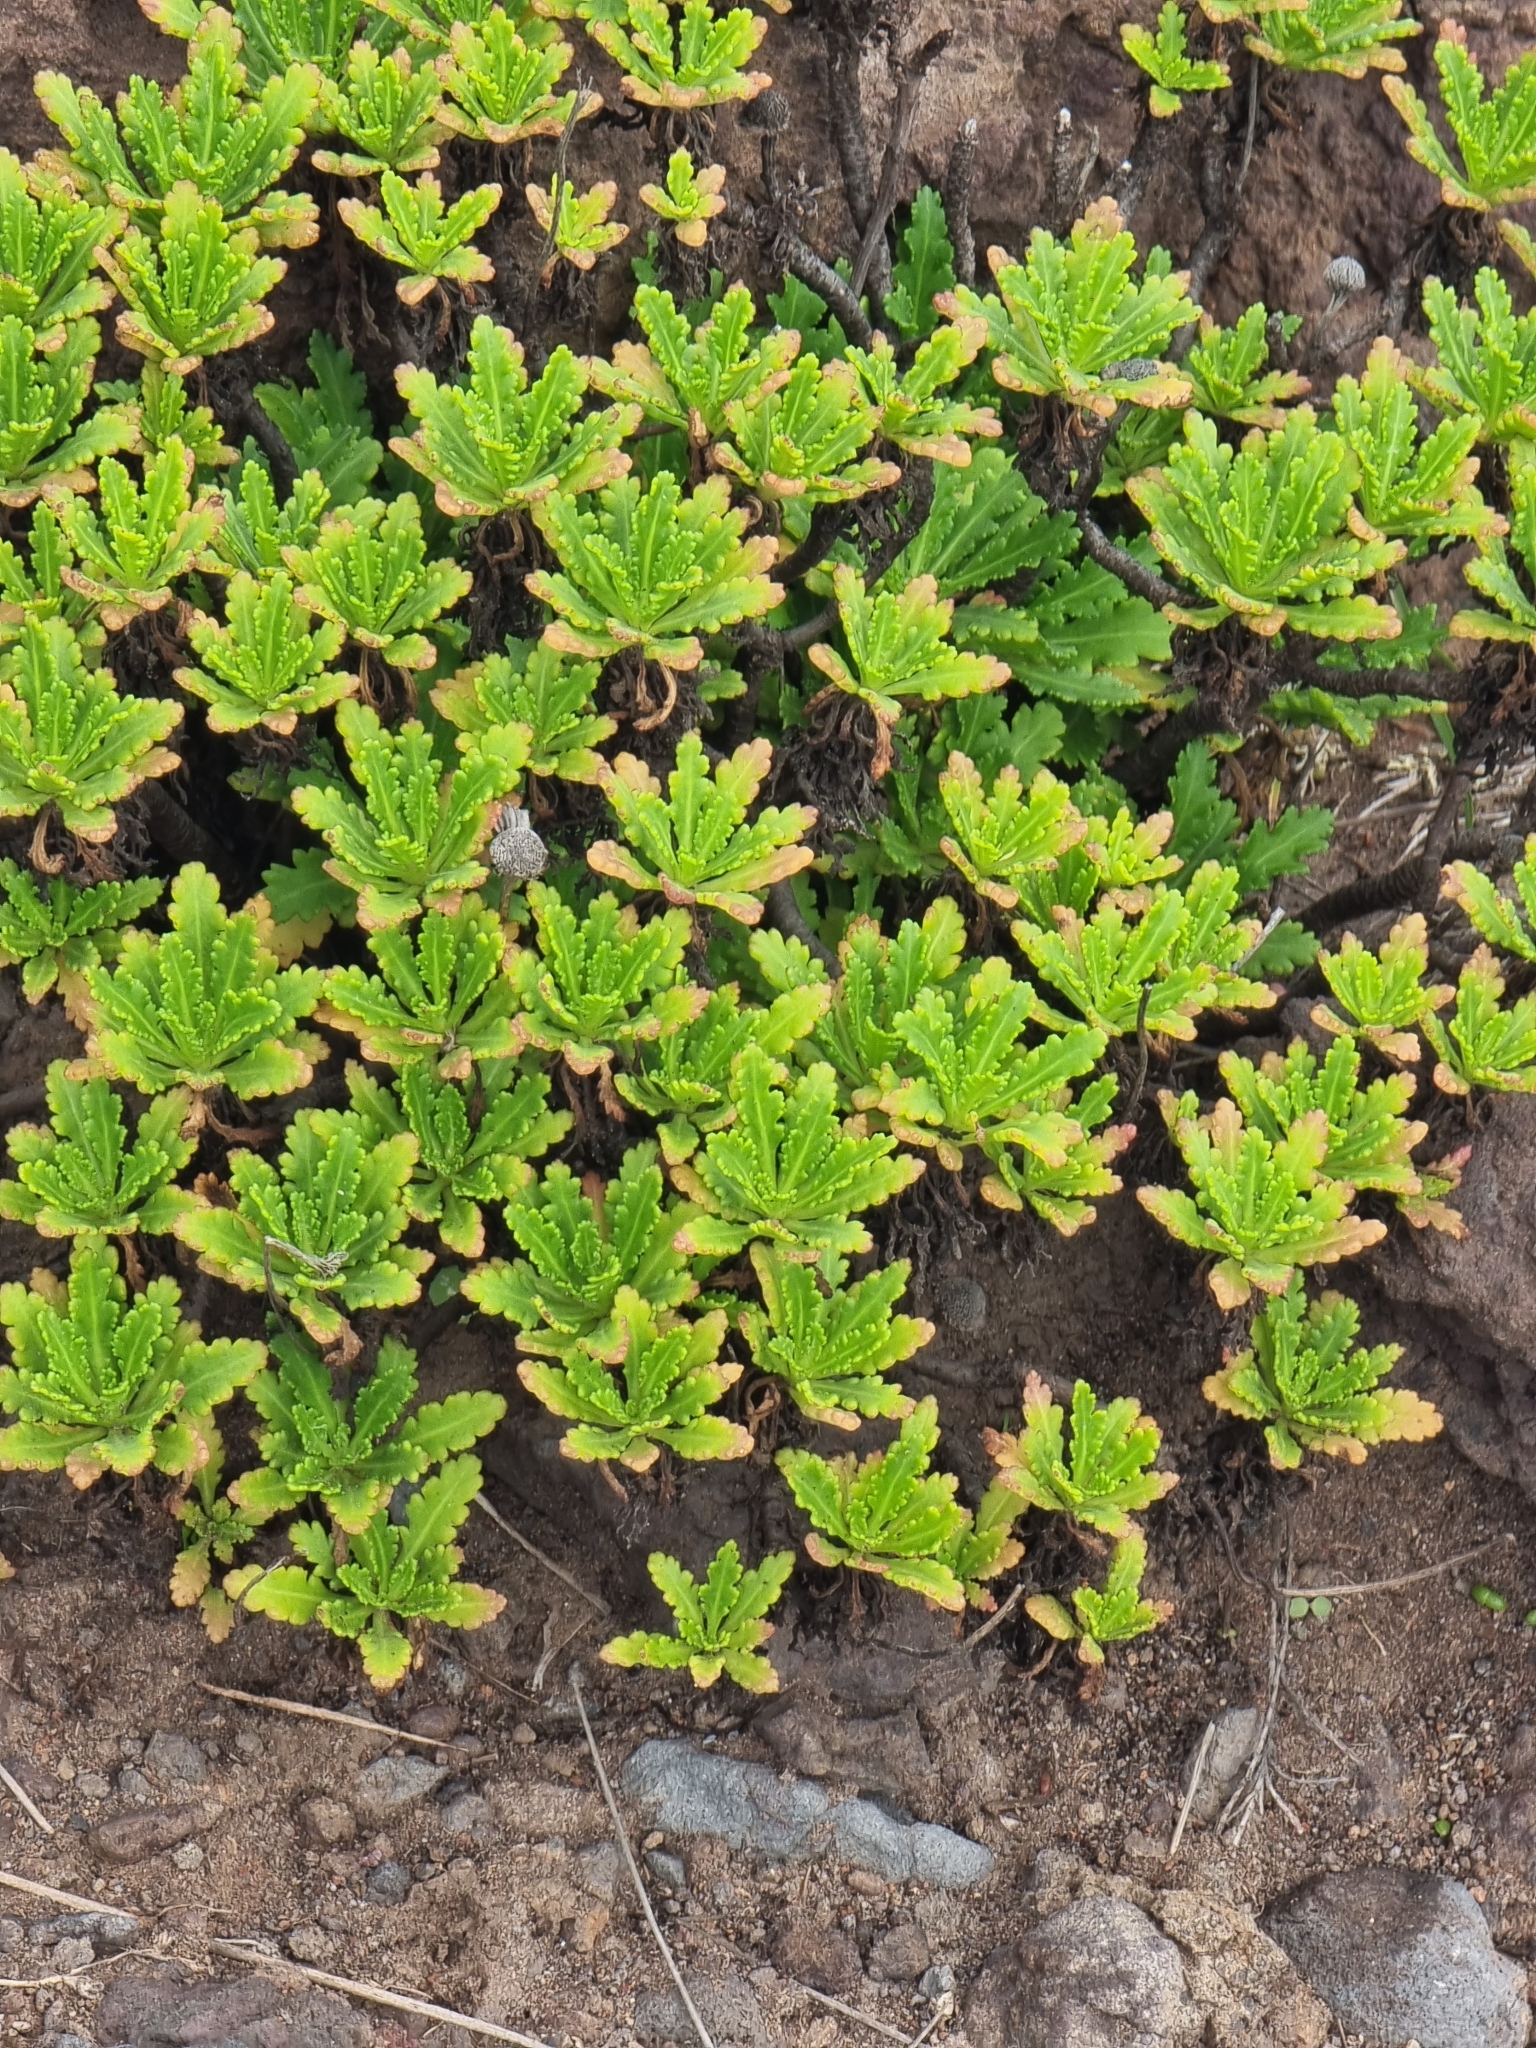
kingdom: Plantae
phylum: Tracheophyta
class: Magnoliopsida
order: Asterales
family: Asteraceae
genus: Argyranthemum
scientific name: Argyranthemum pinnatifidum
